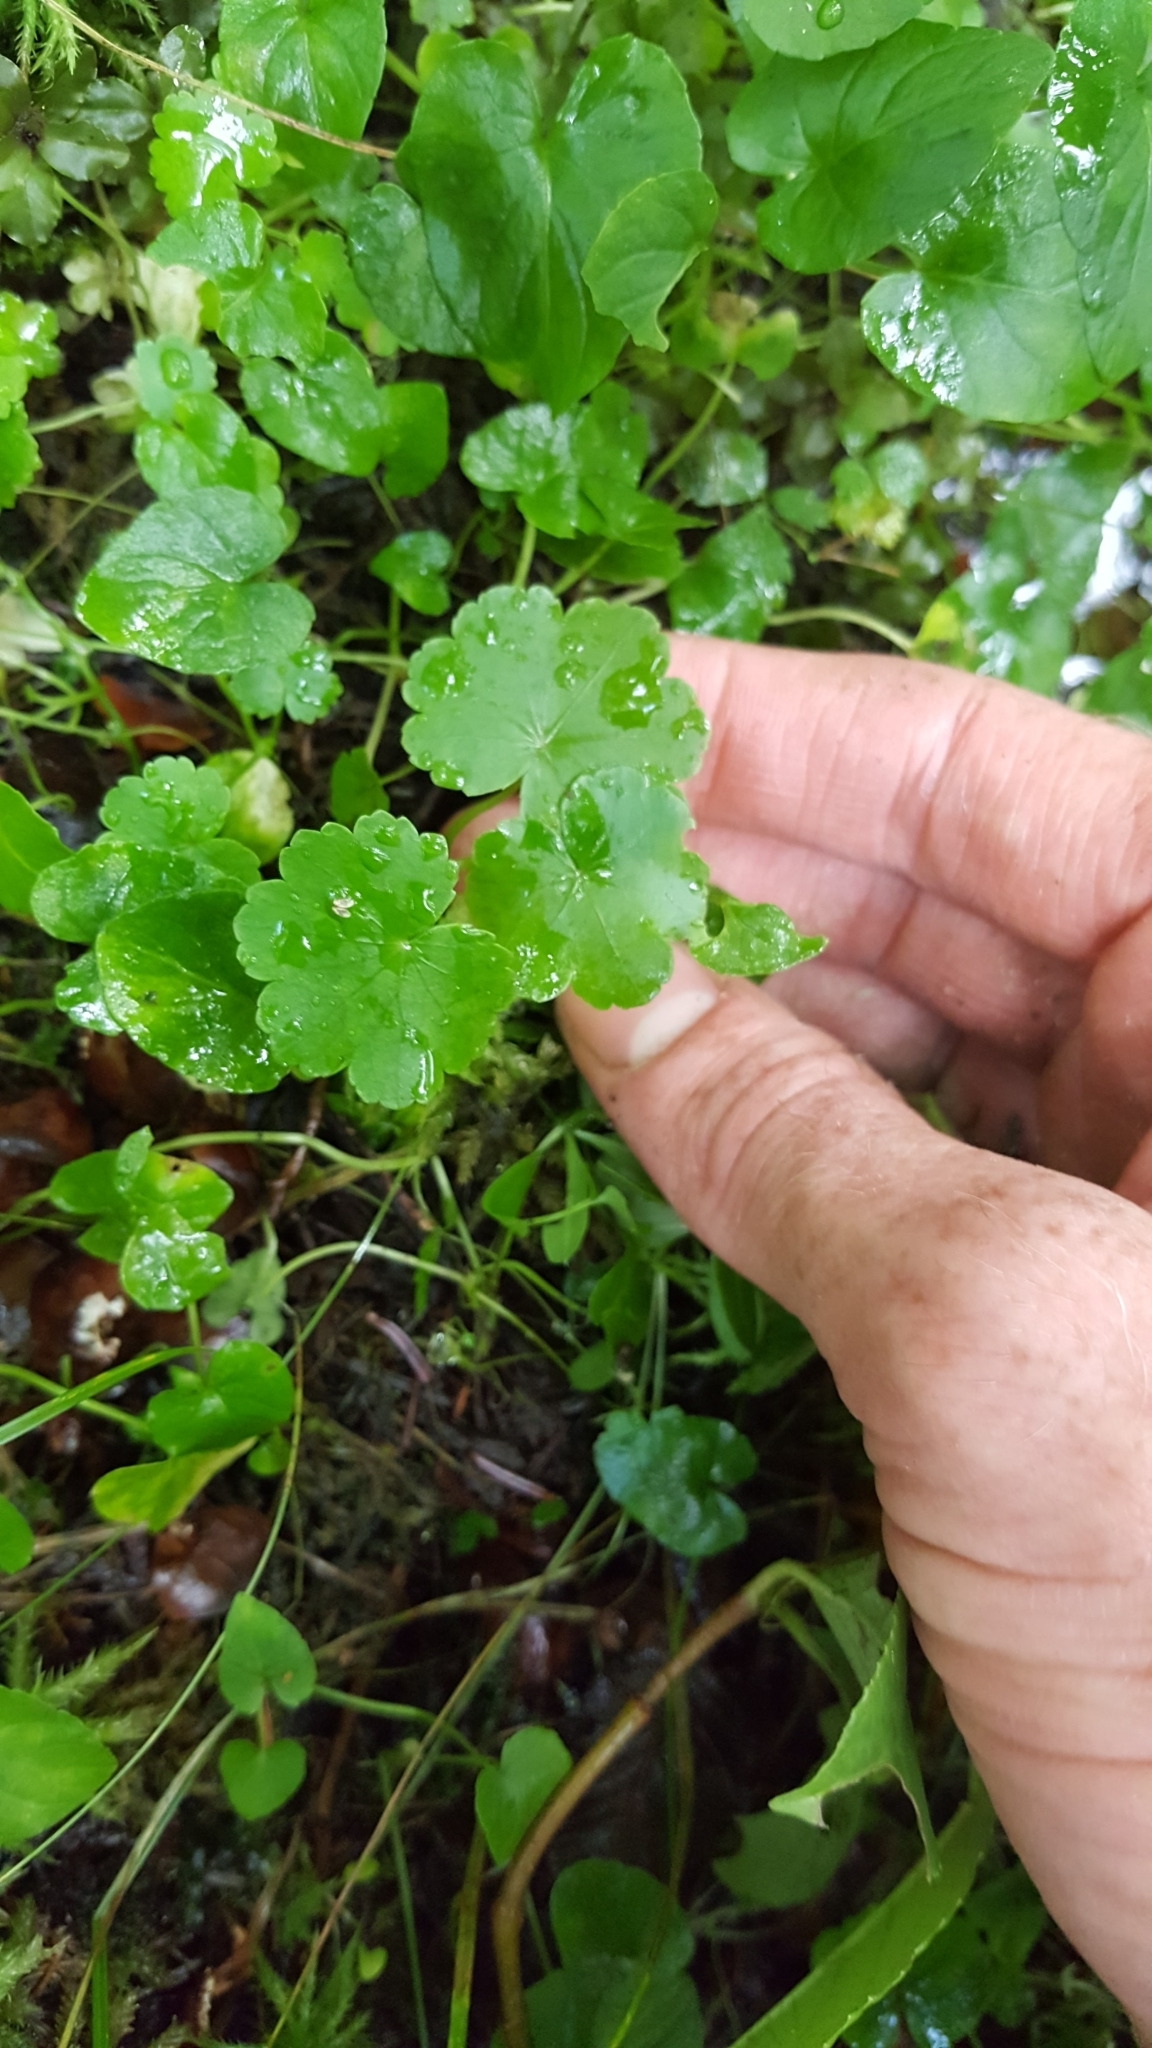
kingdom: Plantae
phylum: Tracheophyta
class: Magnoliopsida
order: Apiales
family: Araliaceae
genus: Hydrocotyle
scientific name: Hydrocotyle americana
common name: American water-pennywort
